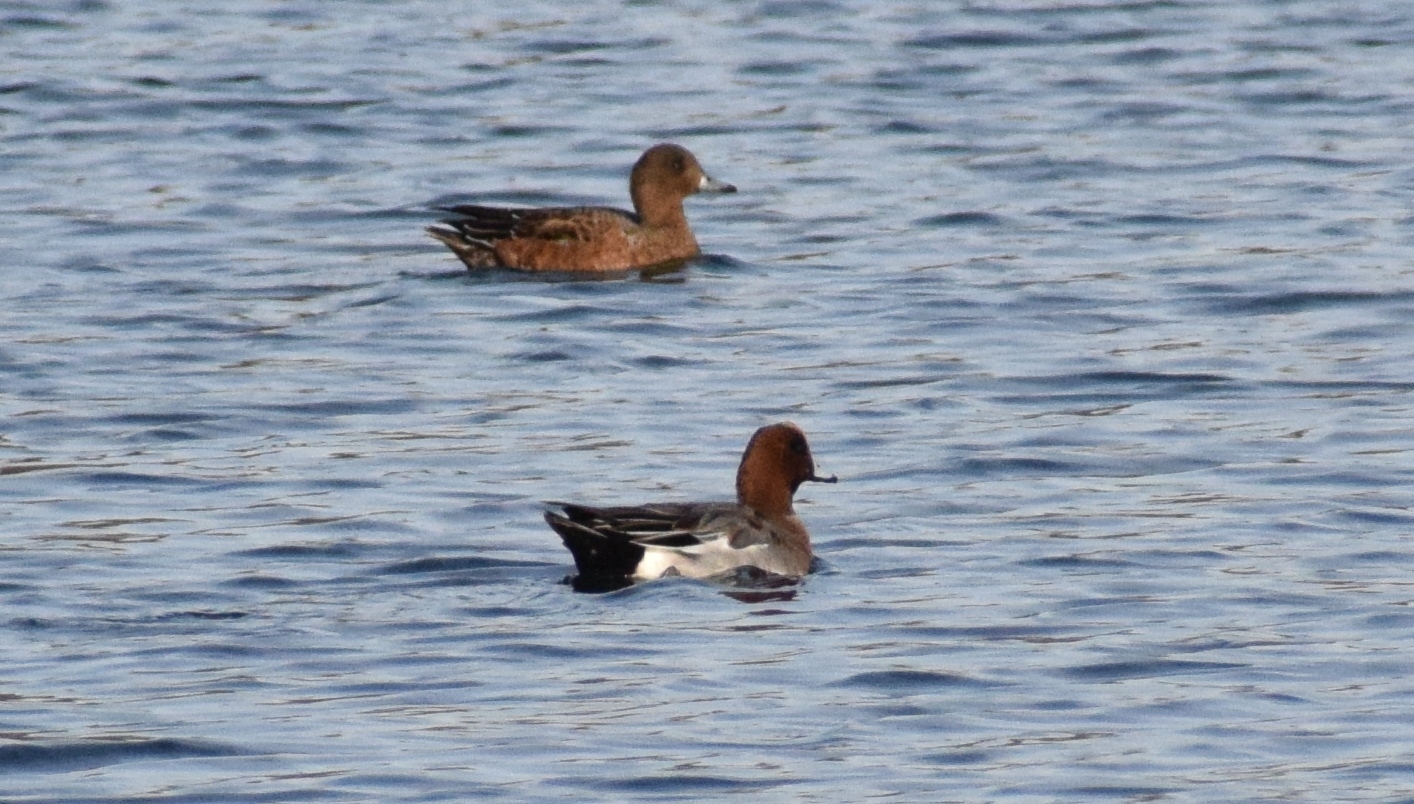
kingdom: Animalia
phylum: Chordata
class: Aves
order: Anseriformes
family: Anatidae
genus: Mareca
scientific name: Mareca penelope
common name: Eurasian wigeon
